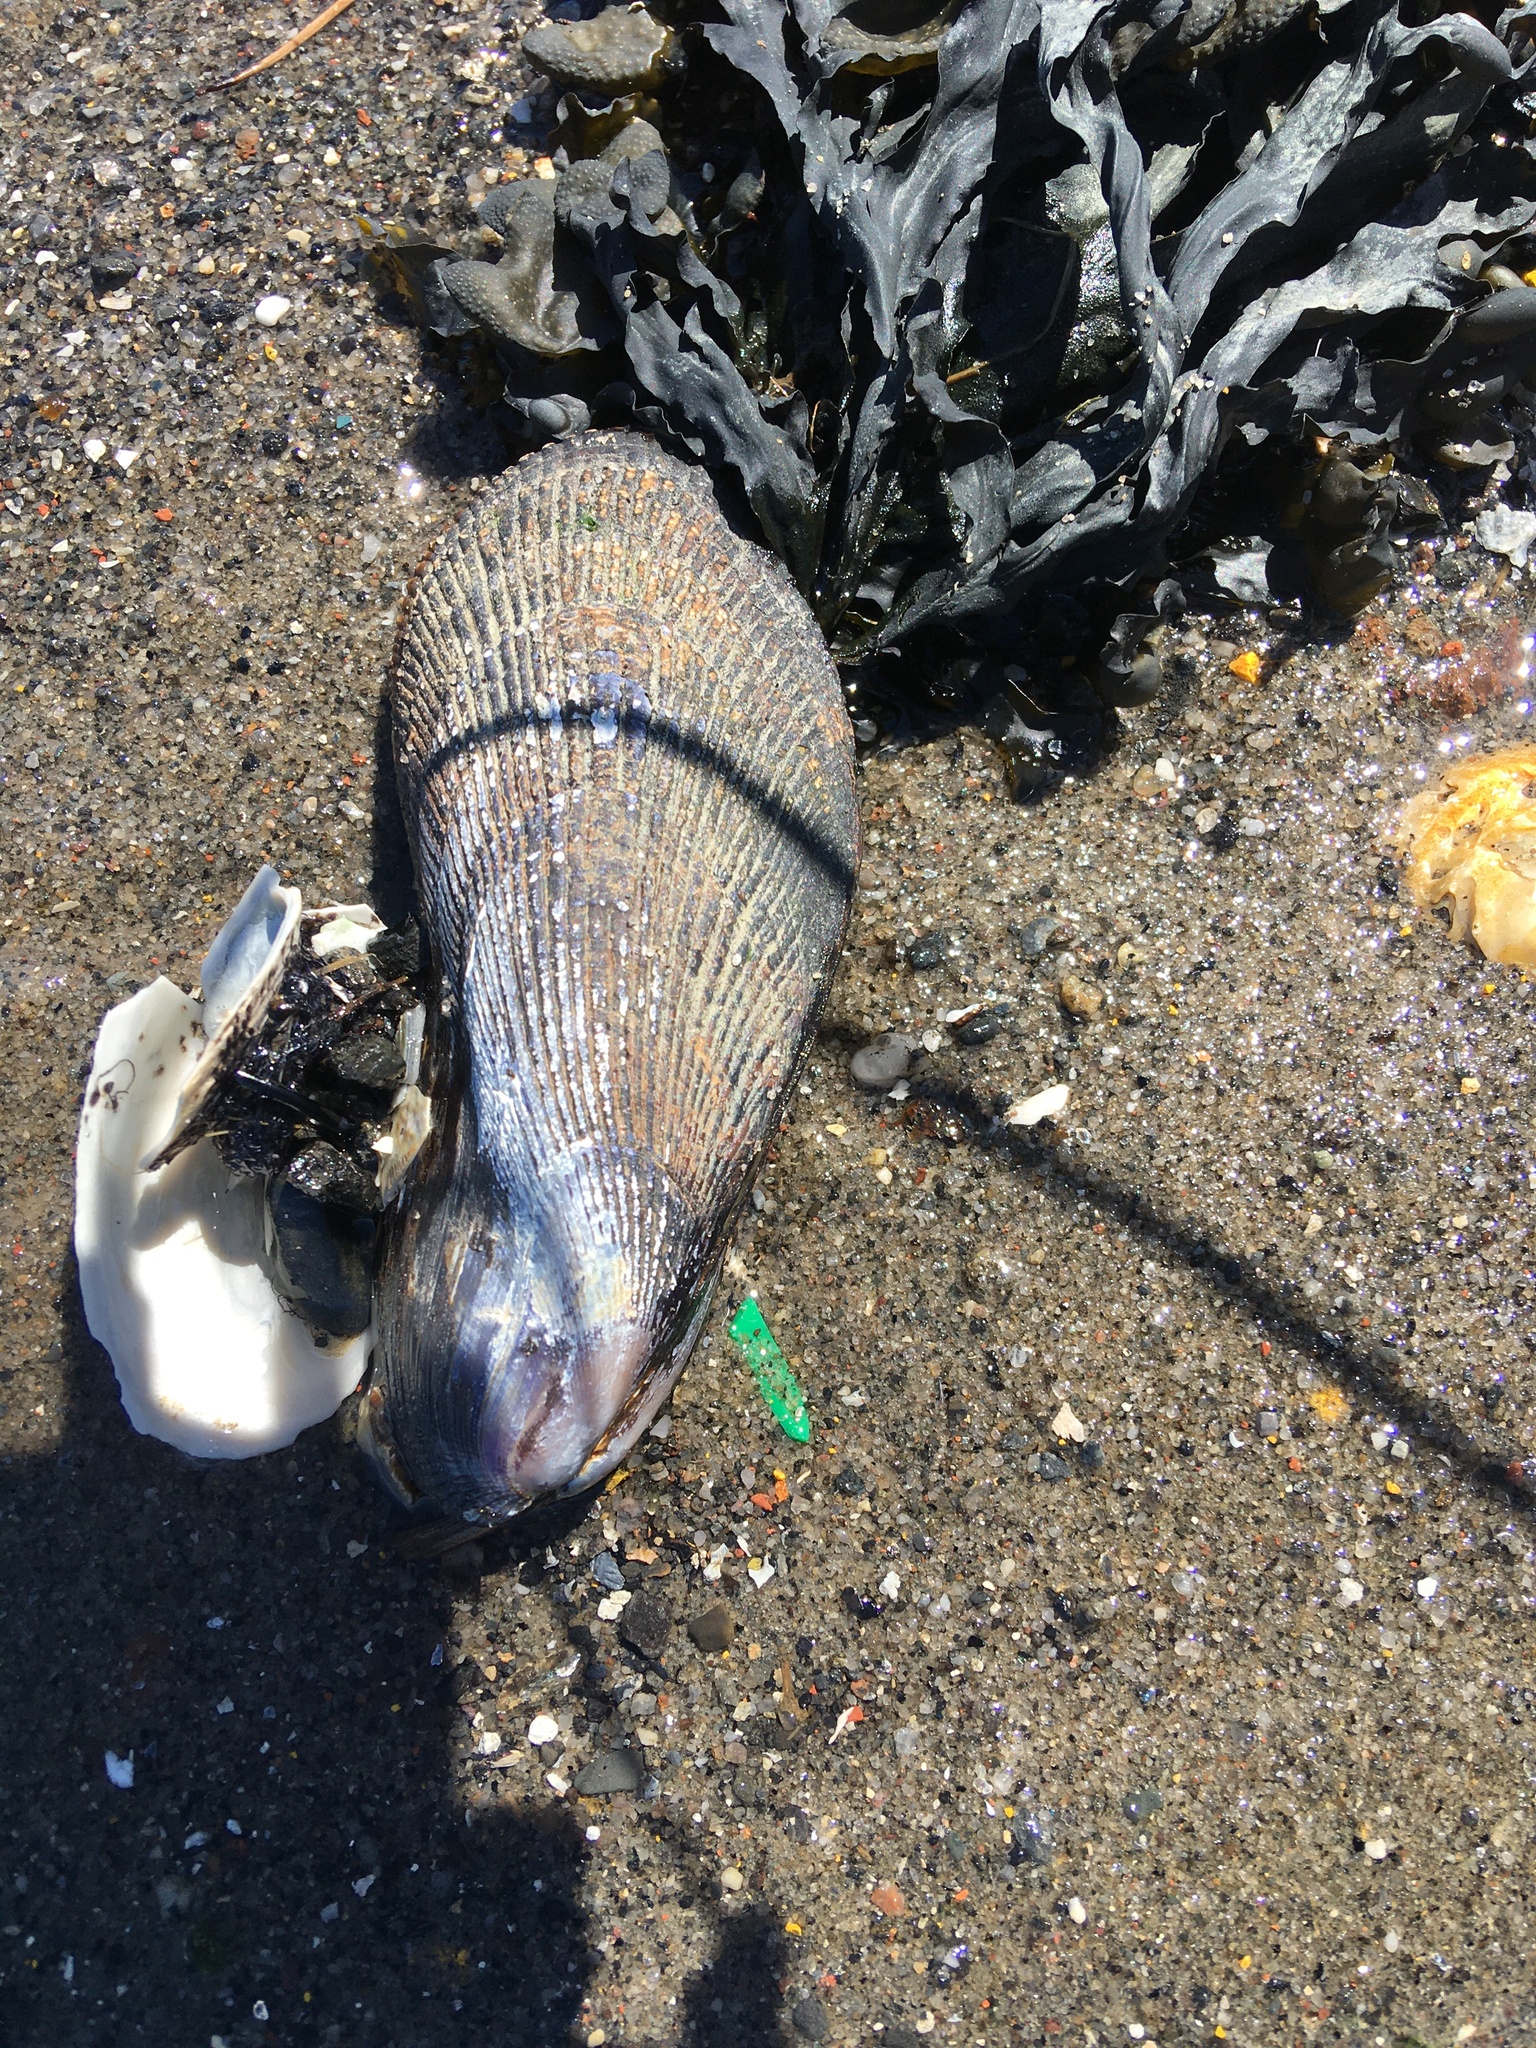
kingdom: Animalia
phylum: Mollusca
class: Bivalvia
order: Mytilida
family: Mytilidae
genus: Geukensia
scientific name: Geukensia demissa
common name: Ribbed mussel
